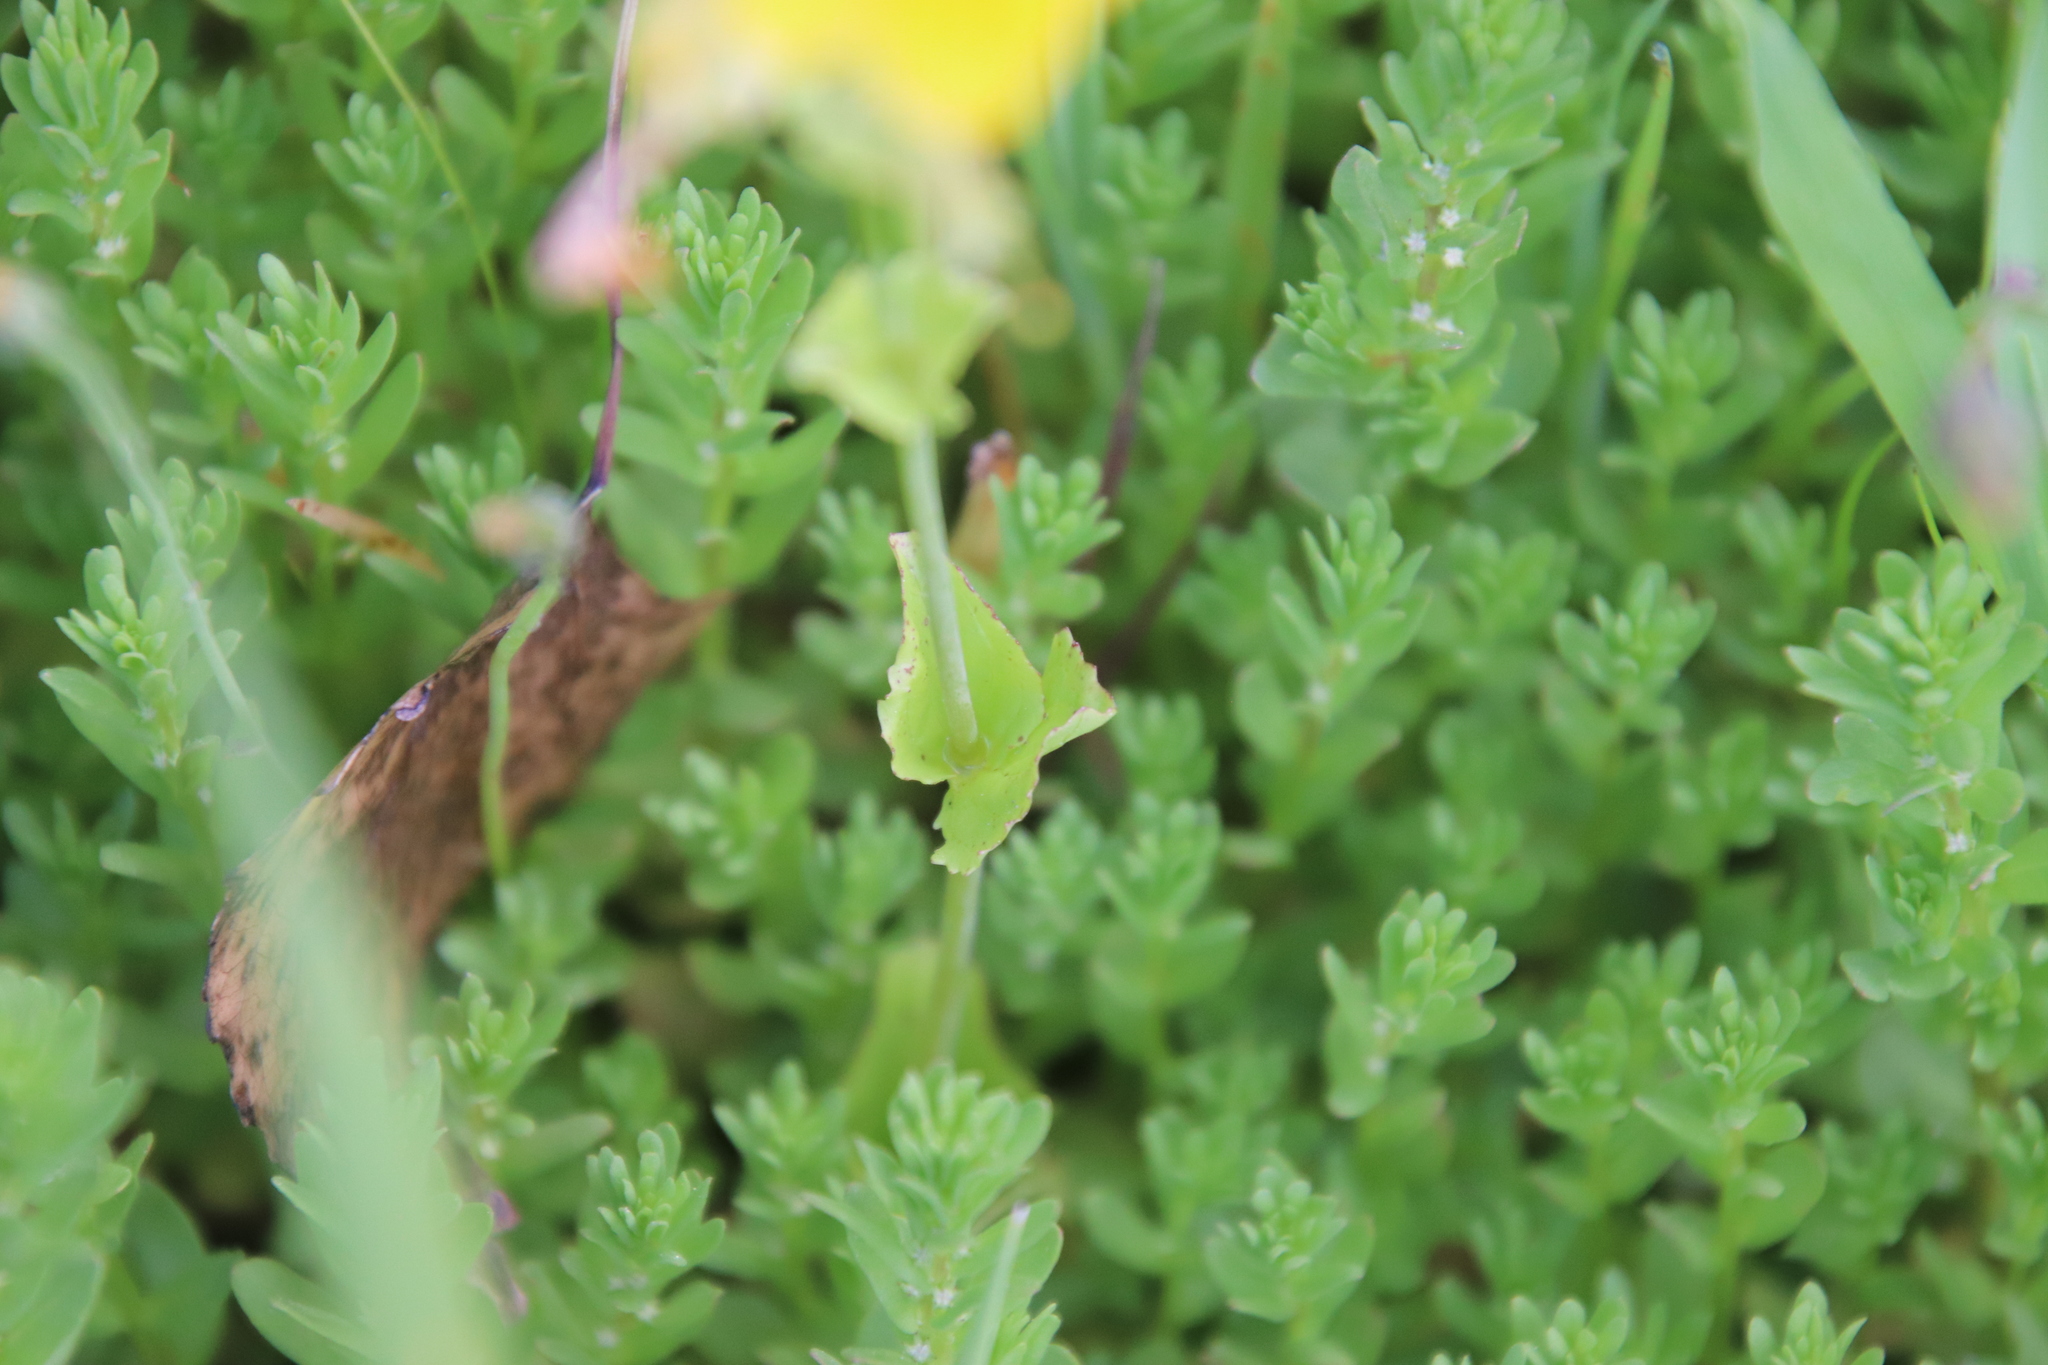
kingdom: Plantae
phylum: Tracheophyta
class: Magnoliopsida
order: Lamiales
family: Phrymaceae
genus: Erythranthe
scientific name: Erythranthe guttata
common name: Monkeyflower
